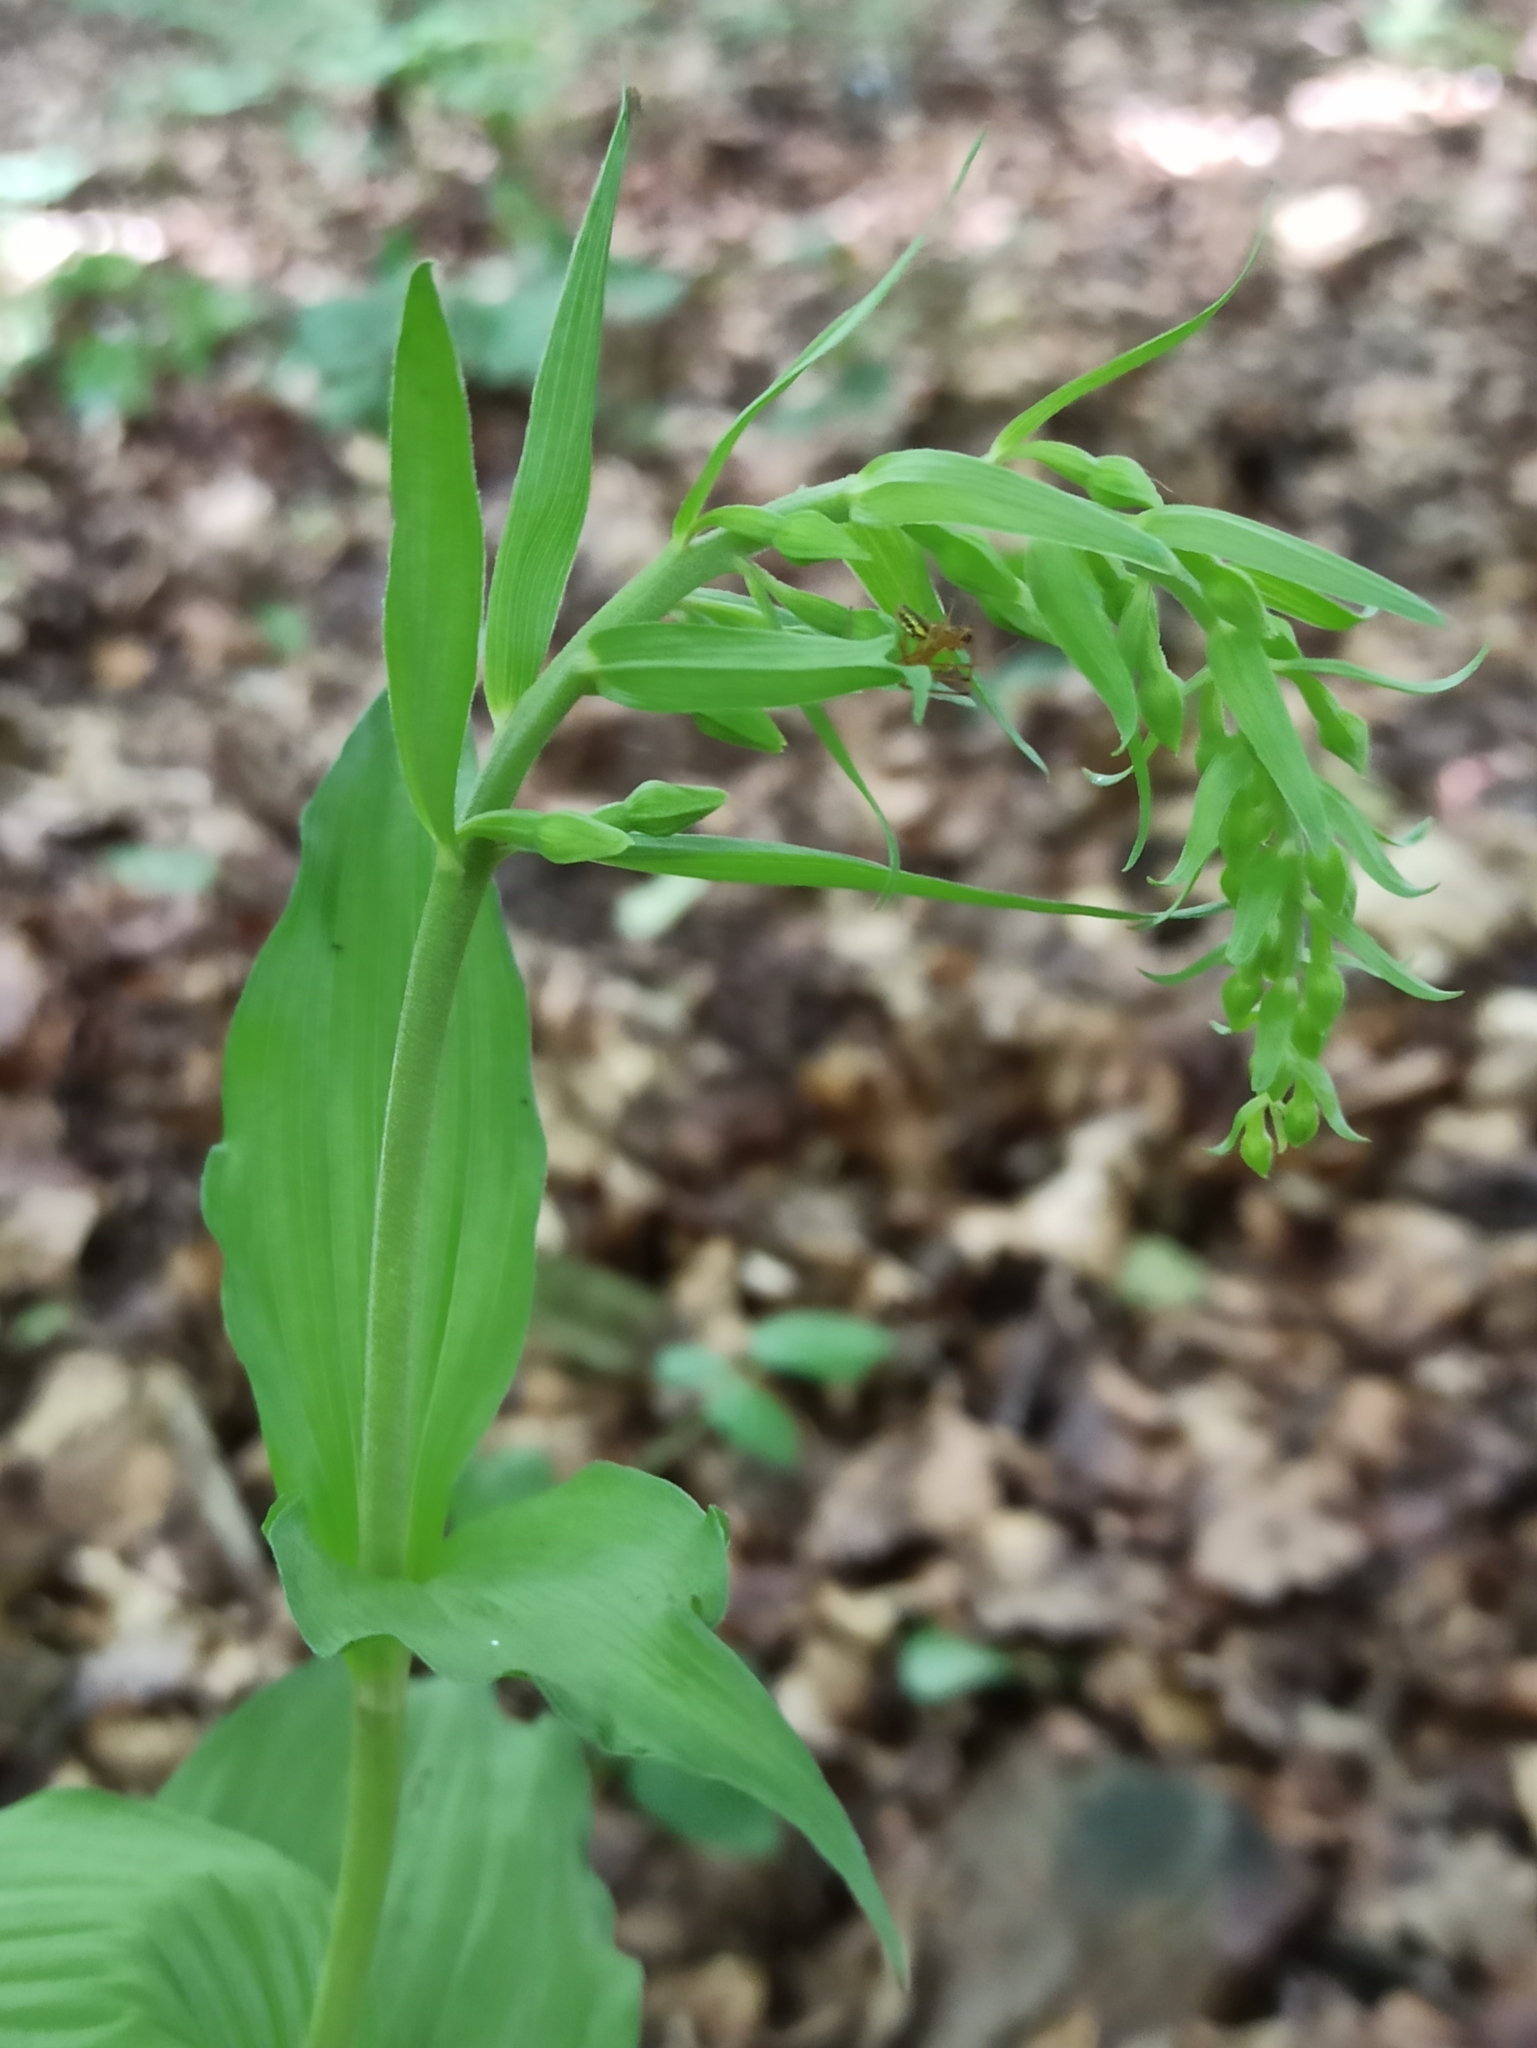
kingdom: Plantae
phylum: Tracheophyta
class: Liliopsida
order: Asparagales
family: Orchidaceae
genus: Epipactis
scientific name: Epipactis helleborine
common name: Broad-leaved helleborine
